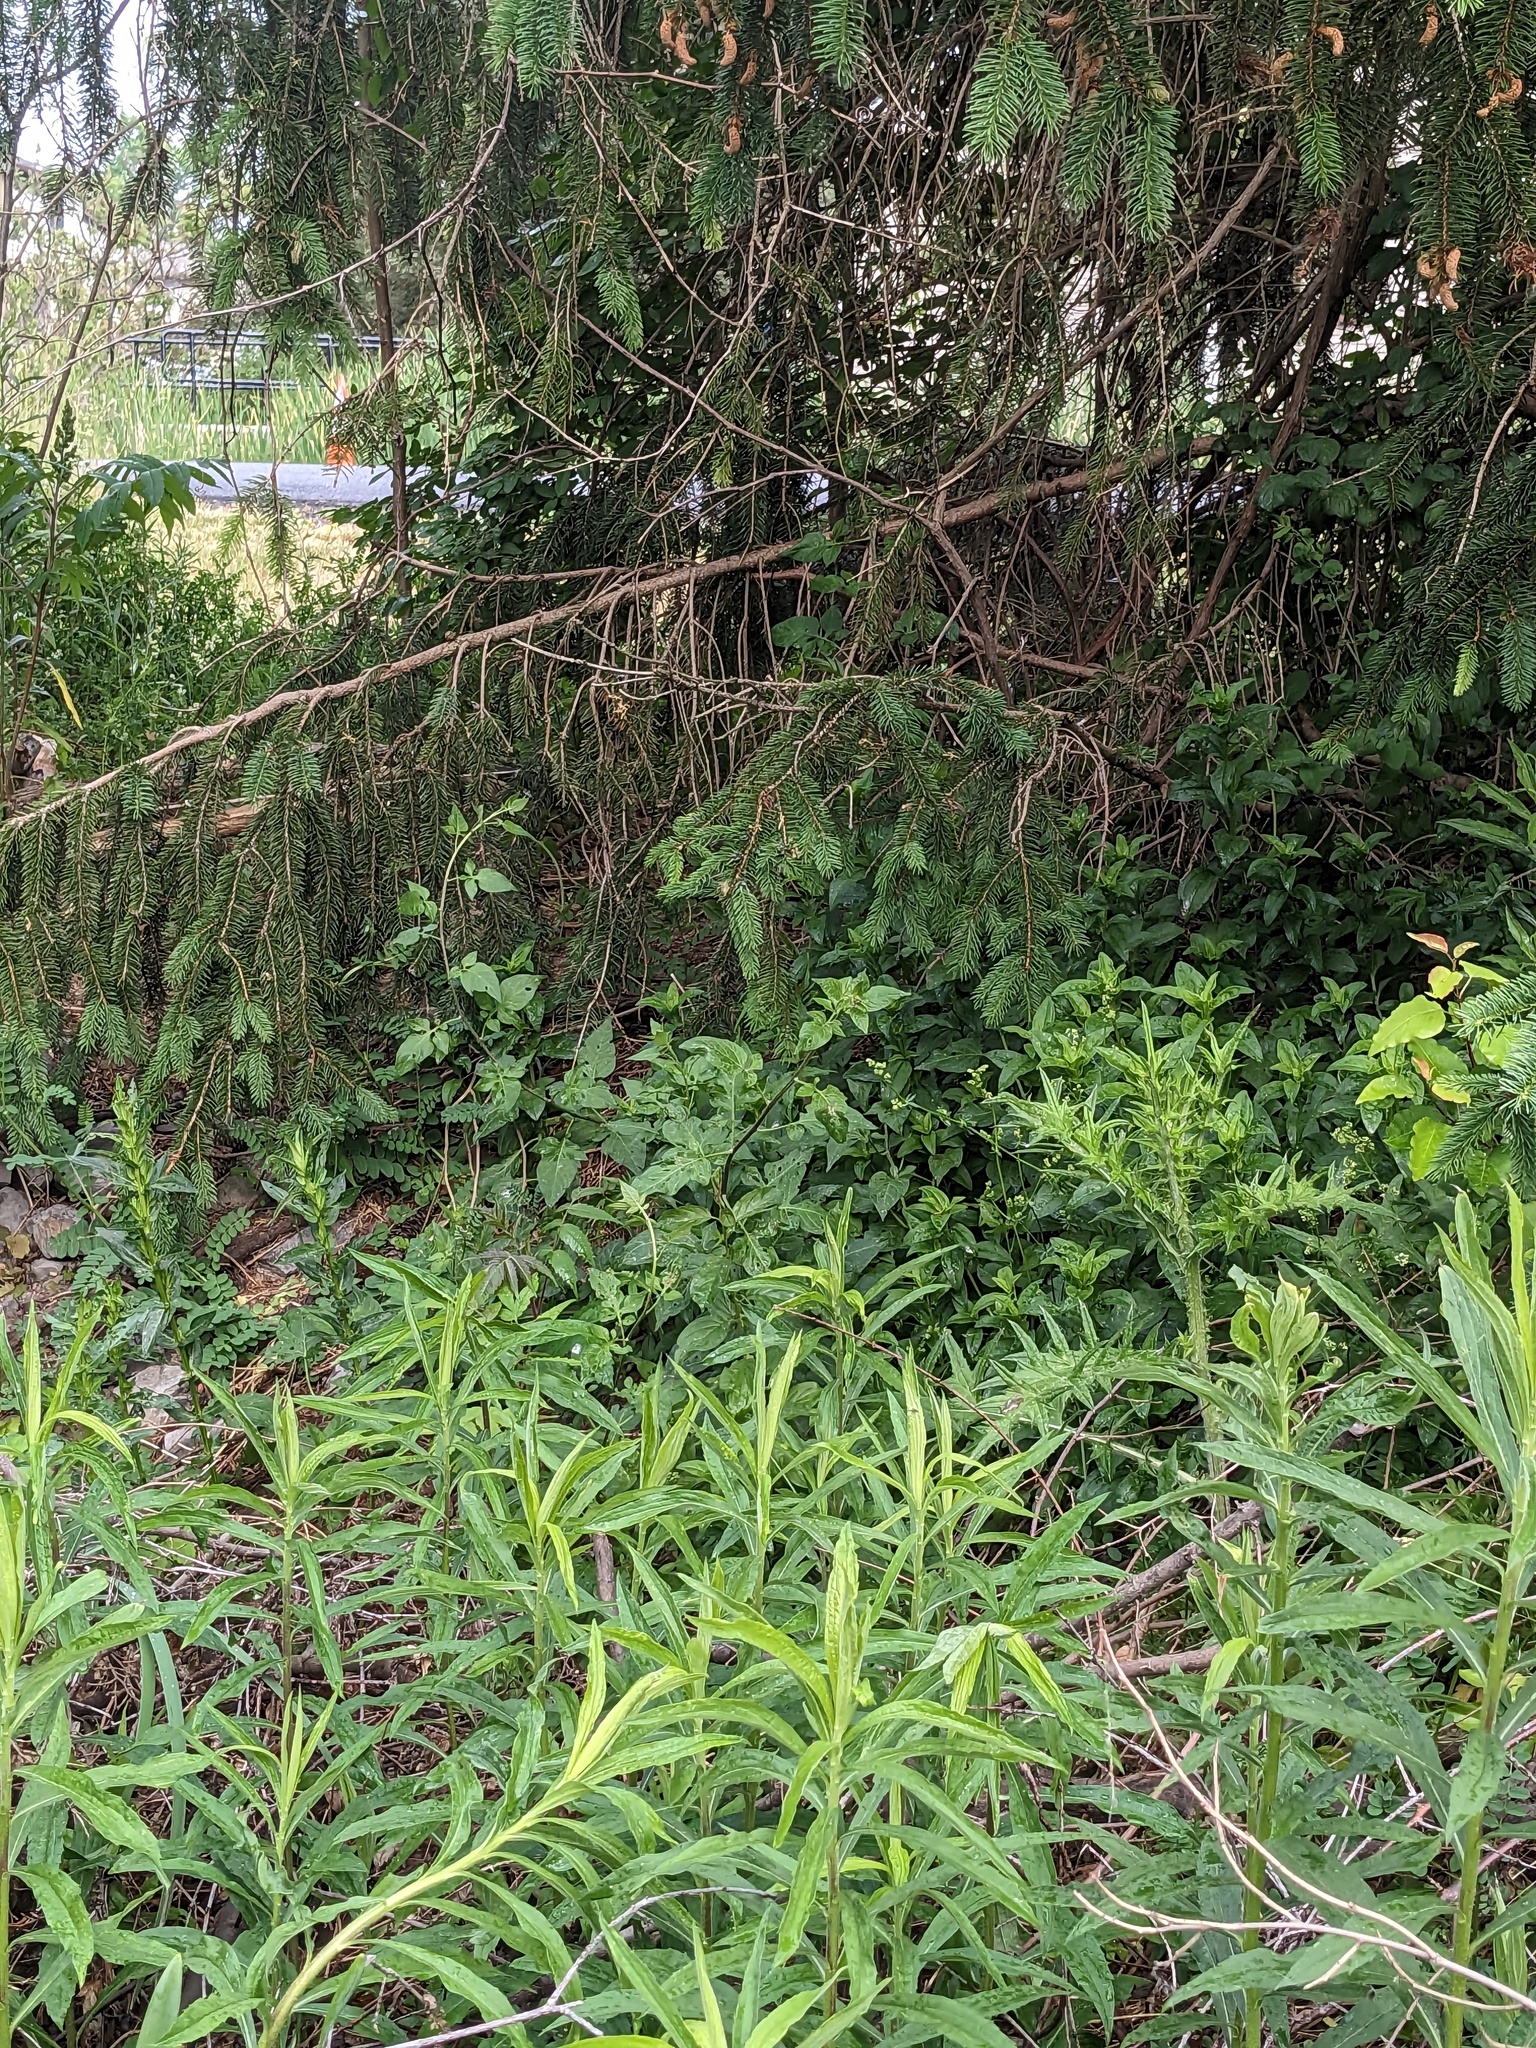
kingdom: Plantae
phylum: Tracheophyta
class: Magnoliopsida
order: Solanales
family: Solanaceae
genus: Solanum
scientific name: Solanum dulcamara
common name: Climbing nightshade
